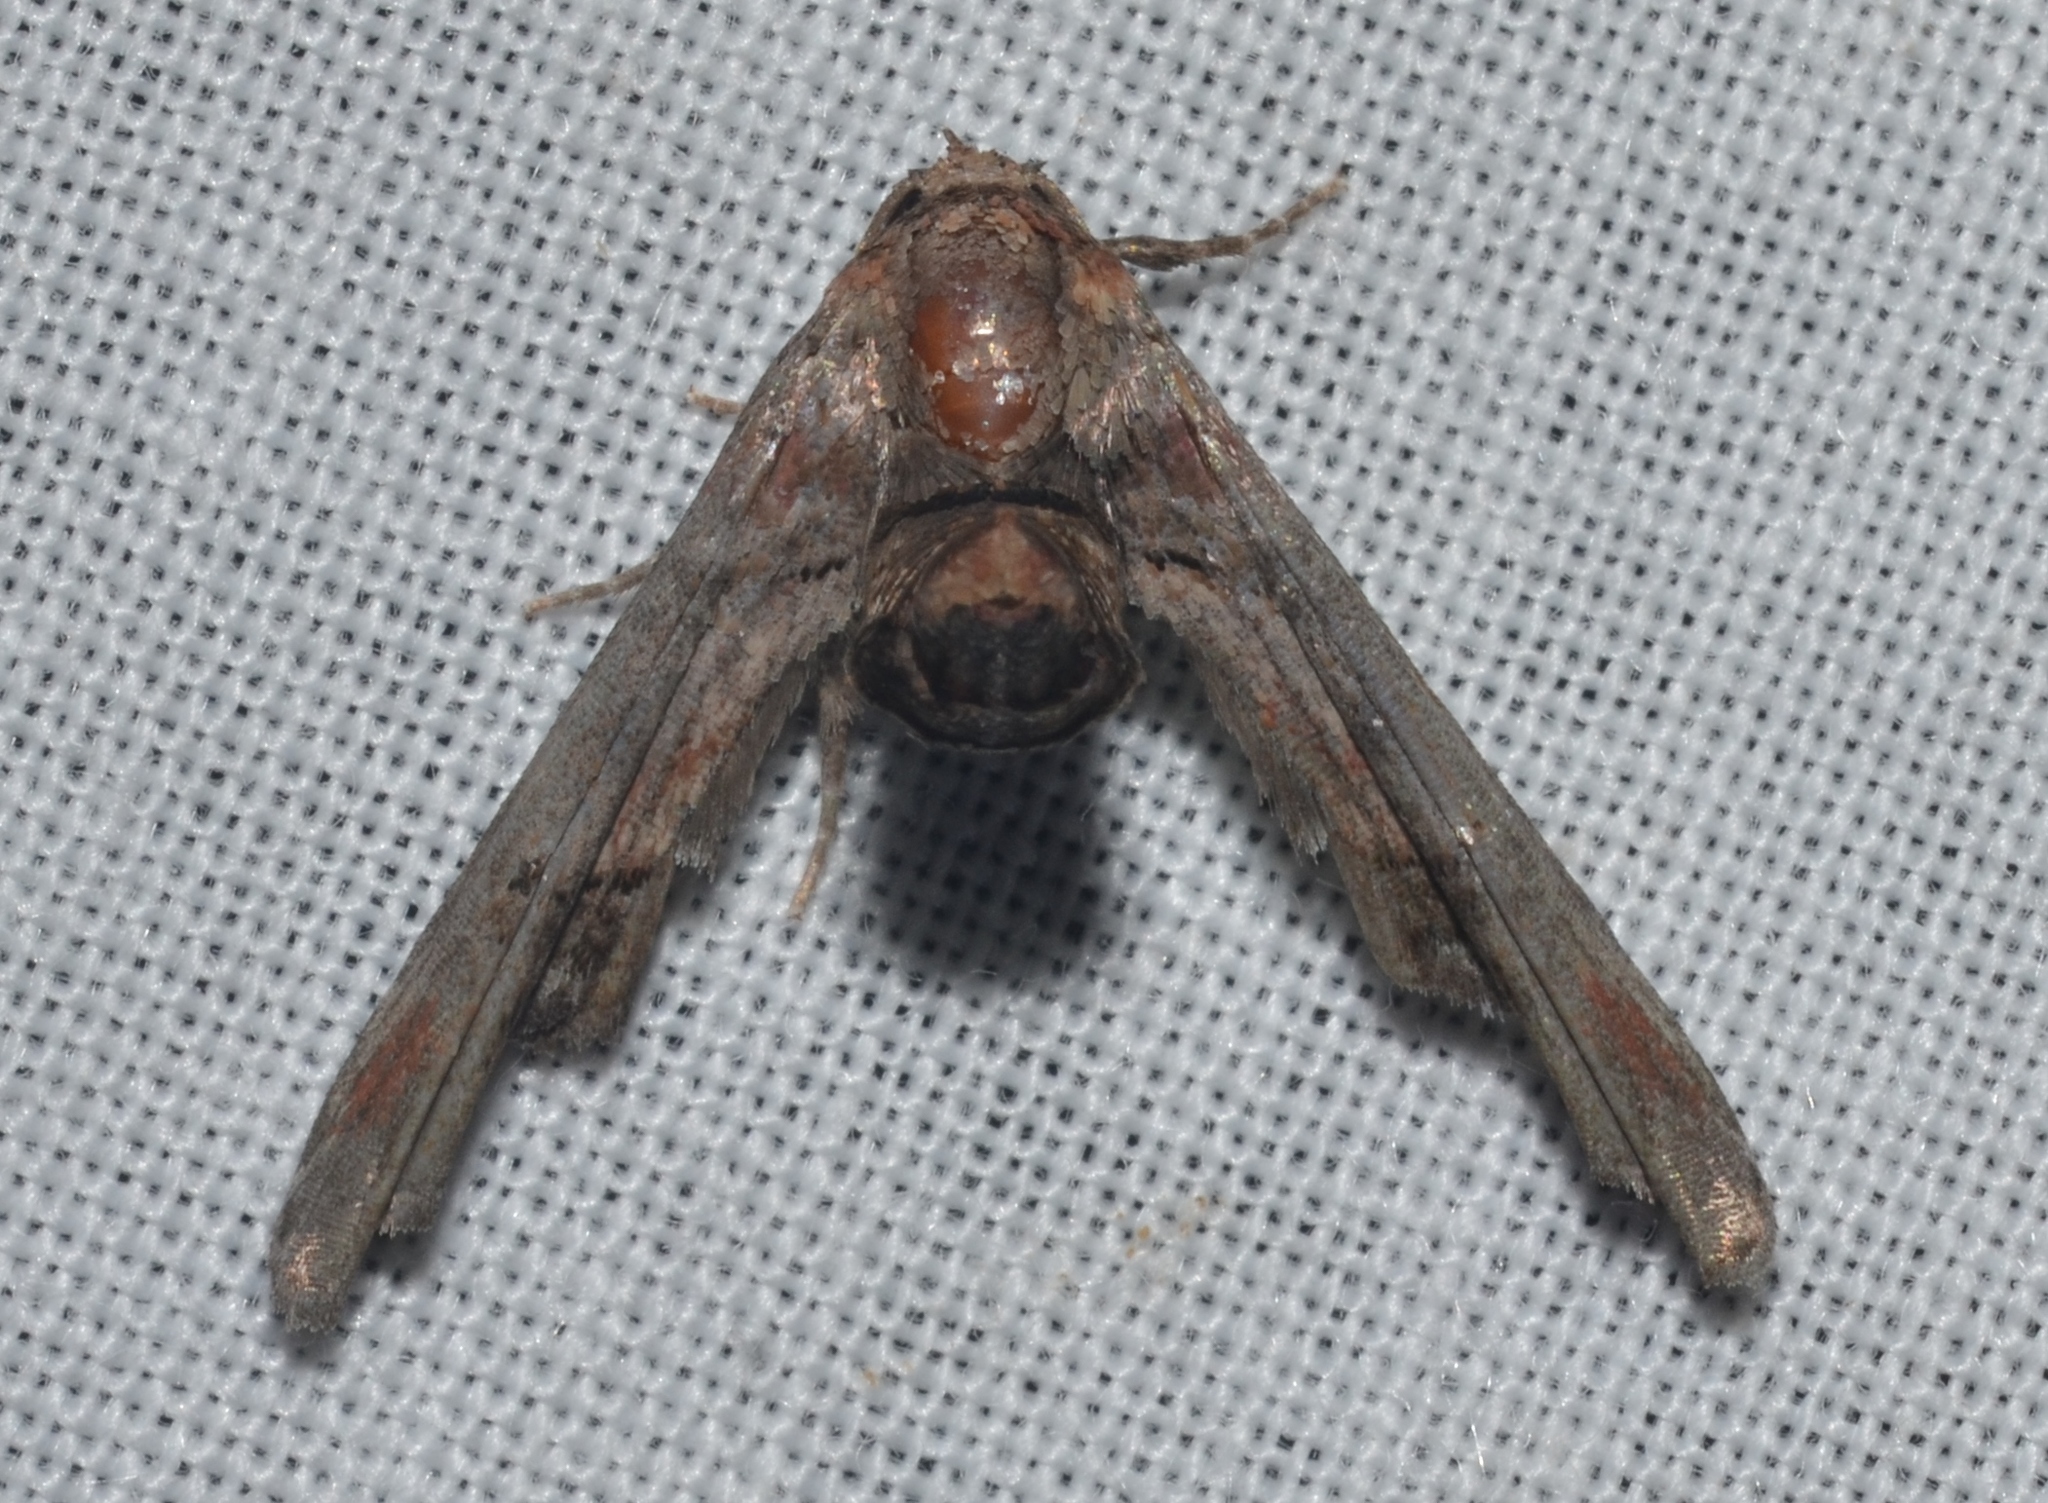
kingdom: Animalia
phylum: Arthropoda
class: Insecta
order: Lepidoptera
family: Euteliidae
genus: Marathyssa
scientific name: Marathyssa inficita
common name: Dark marathyssa moth
